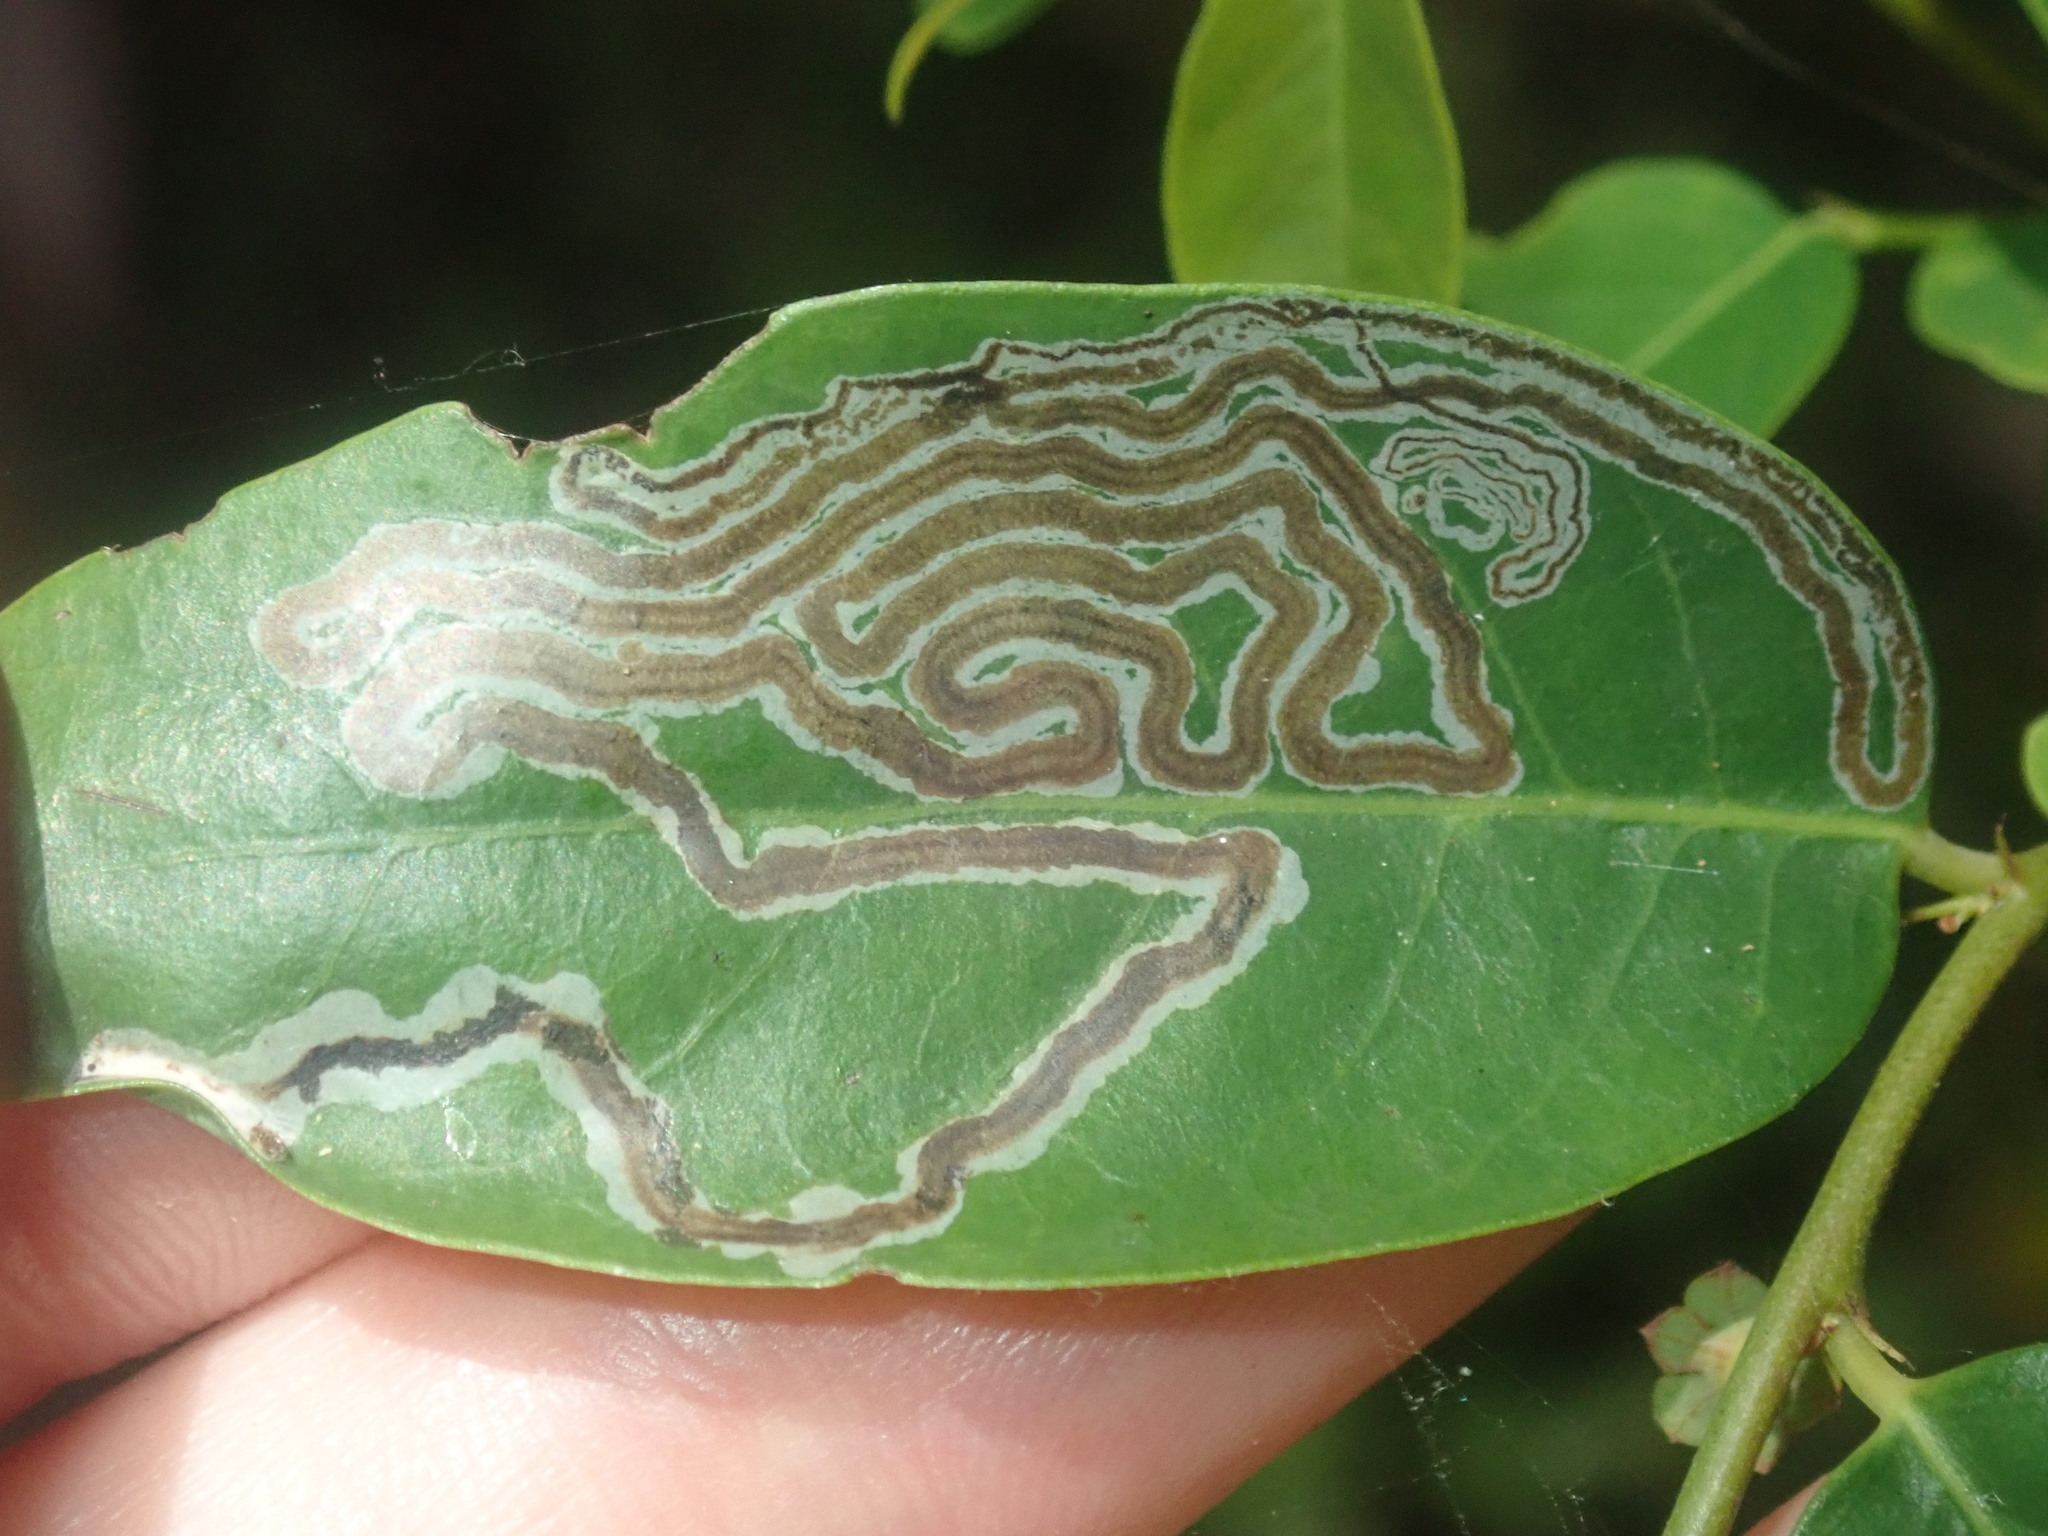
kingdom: Animalia
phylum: Arthropoda
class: Insecta
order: Lepidoptera
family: Gracillariidae
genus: Phyllocnistis
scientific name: Phyllocnistis diaugella
